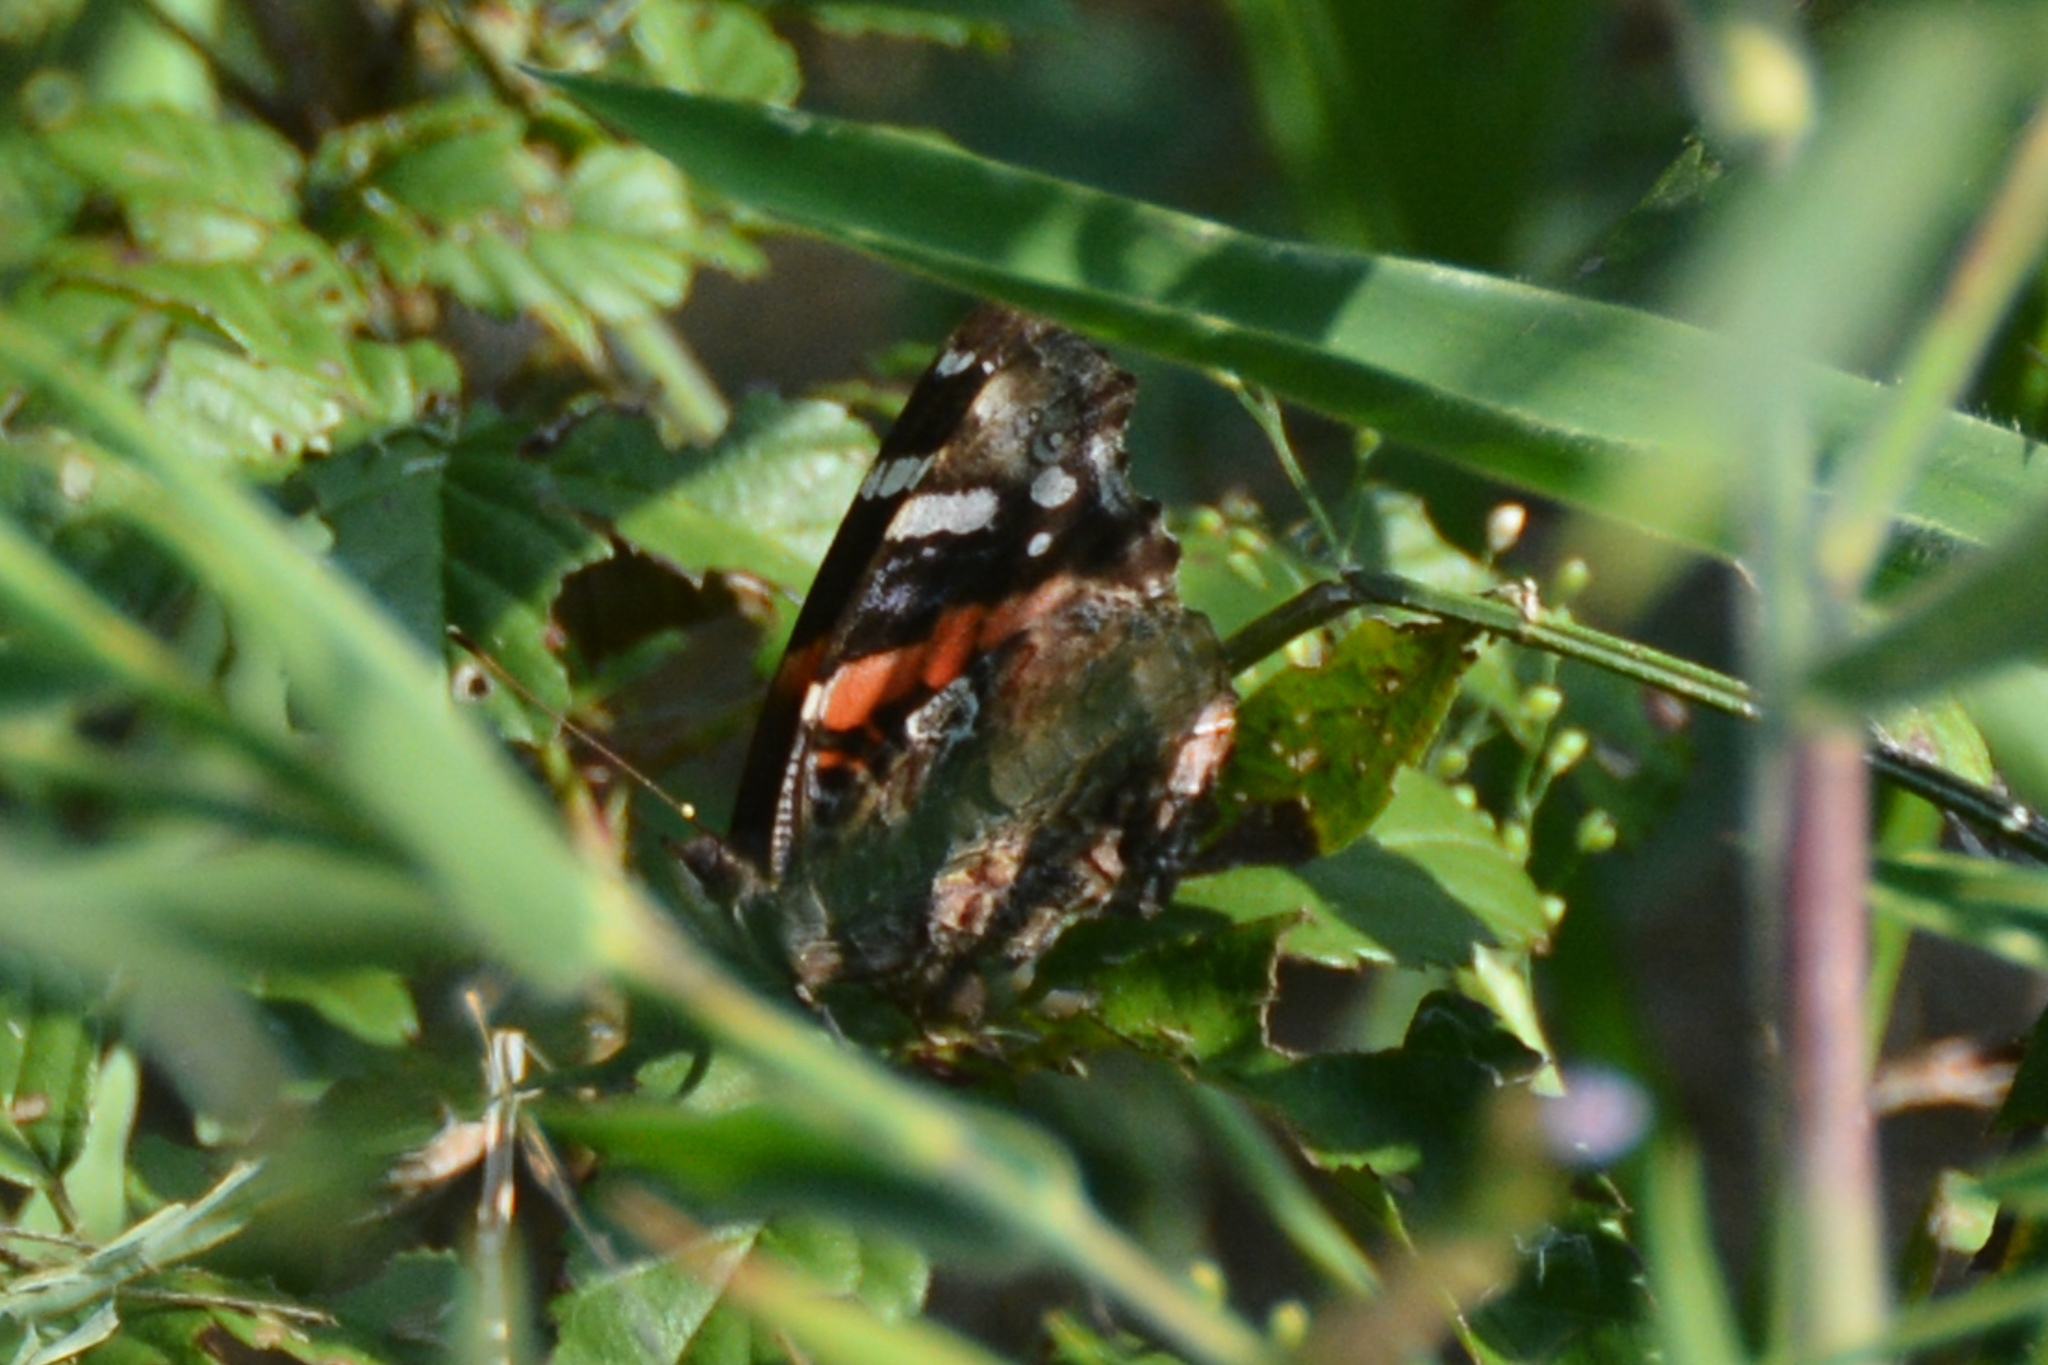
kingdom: Animalia
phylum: Arthropoda
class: Insecta
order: Lepidoptera
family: Nymphalidae
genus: Vanessa
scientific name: Vanessa atalanta
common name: Red admiral
